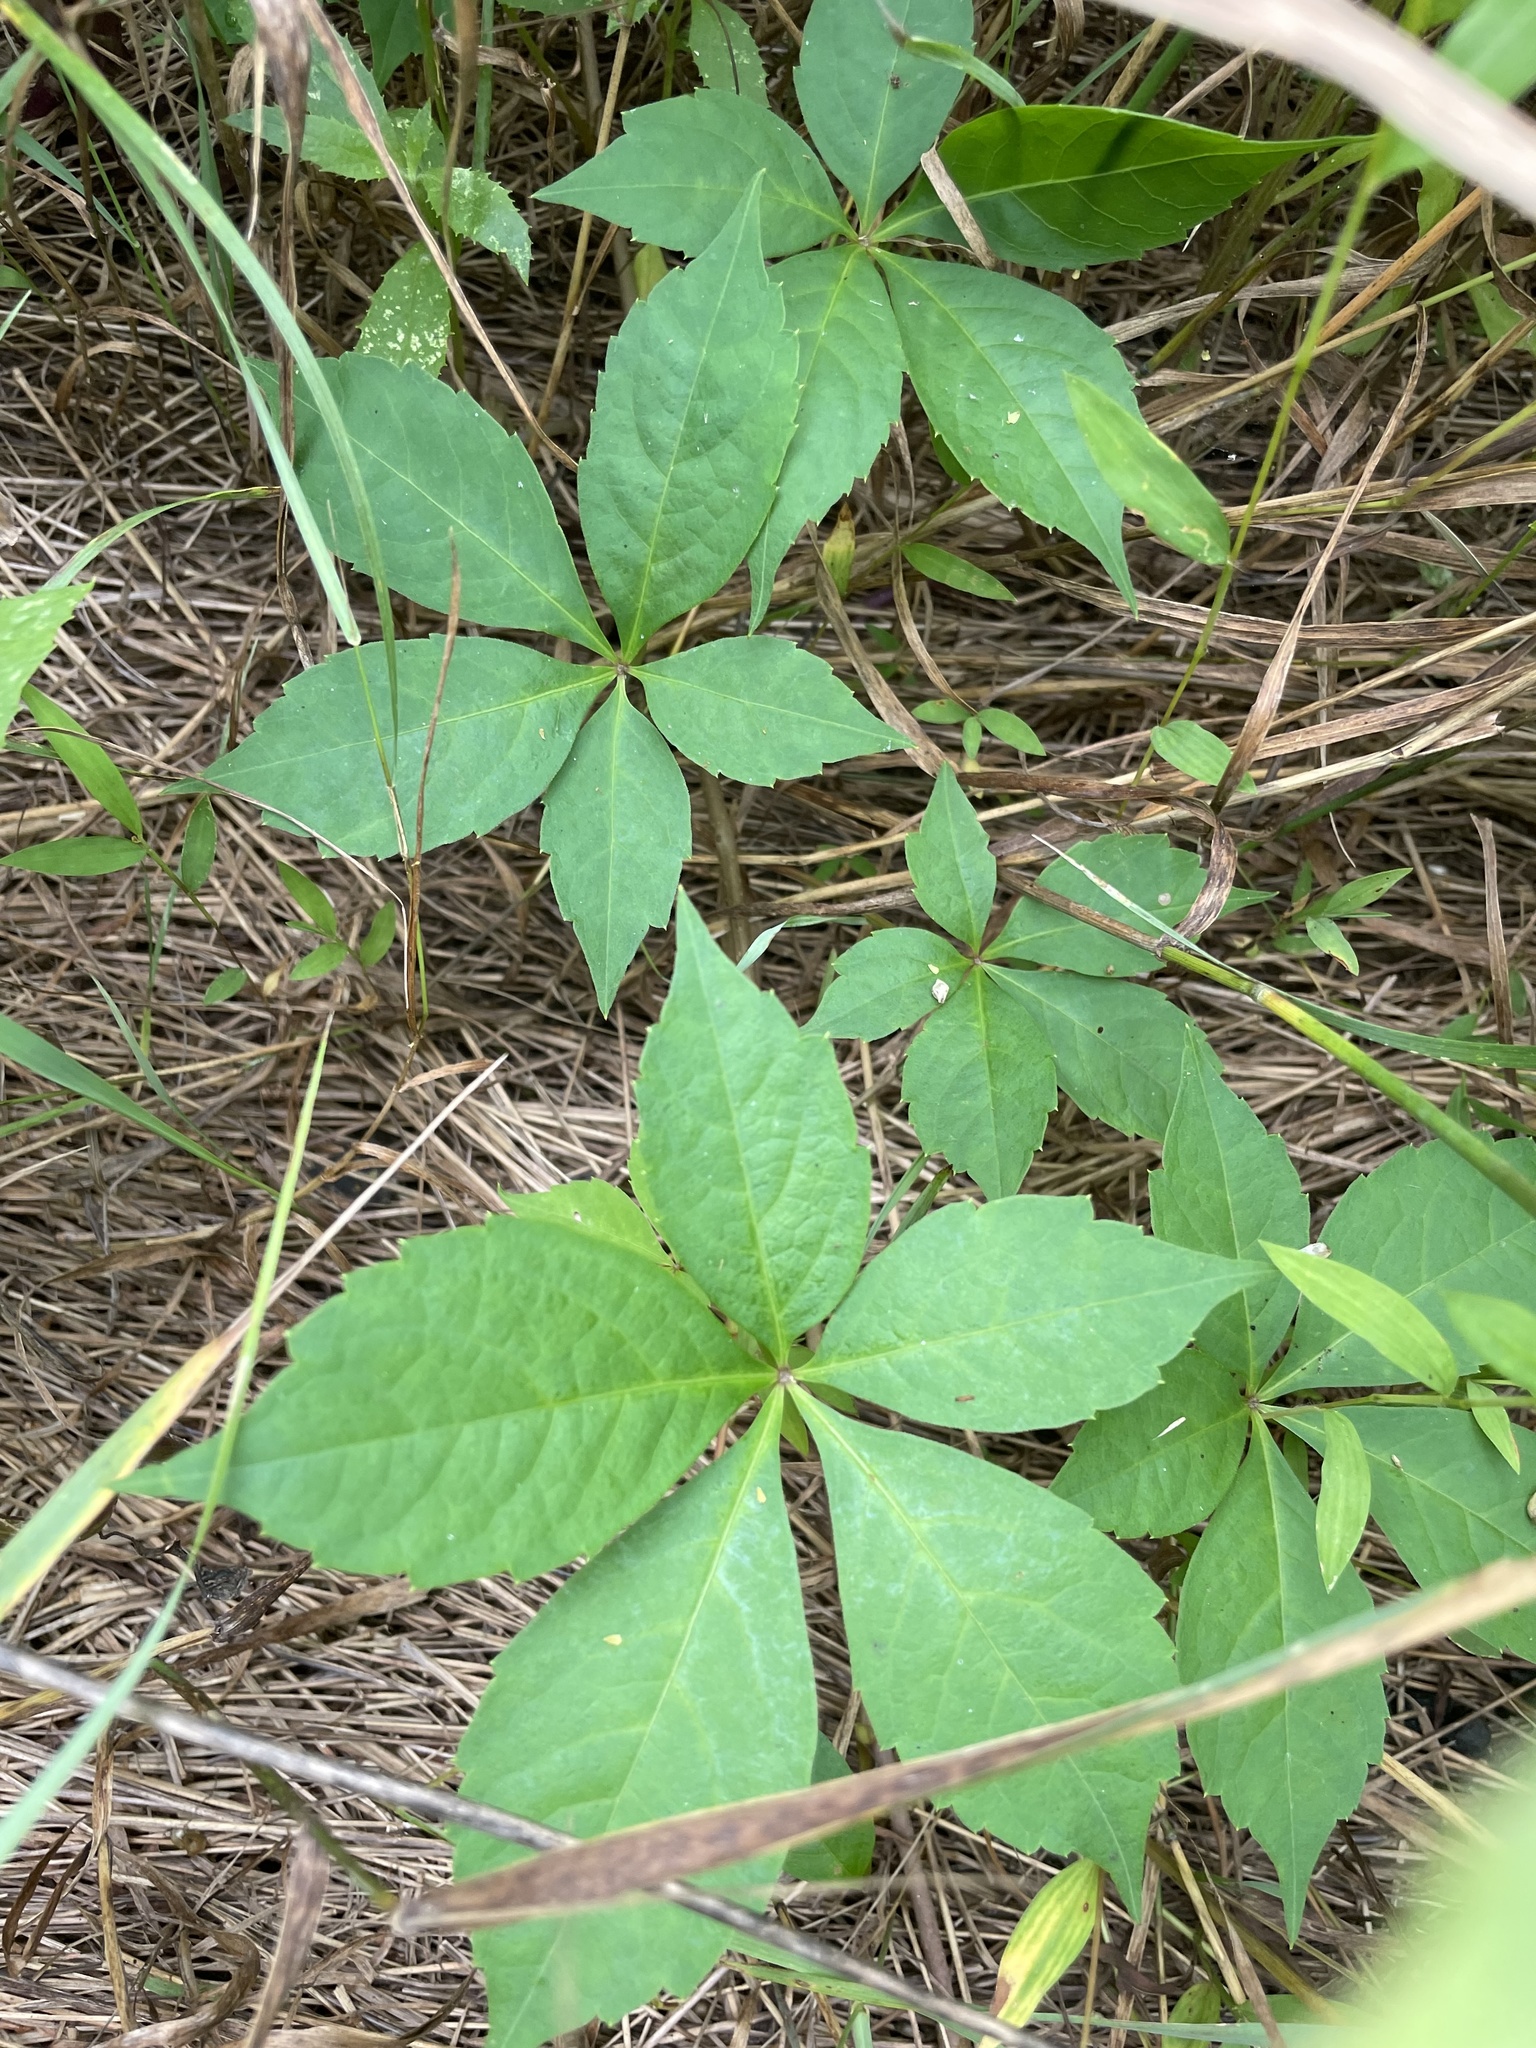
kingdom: Plantae
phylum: Tracheophyta
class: Magnoliopsida
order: Vitales
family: Vitaceae
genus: Parthenocissus
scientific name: Parthenocissus quinquefolia
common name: Virginia-creeper
